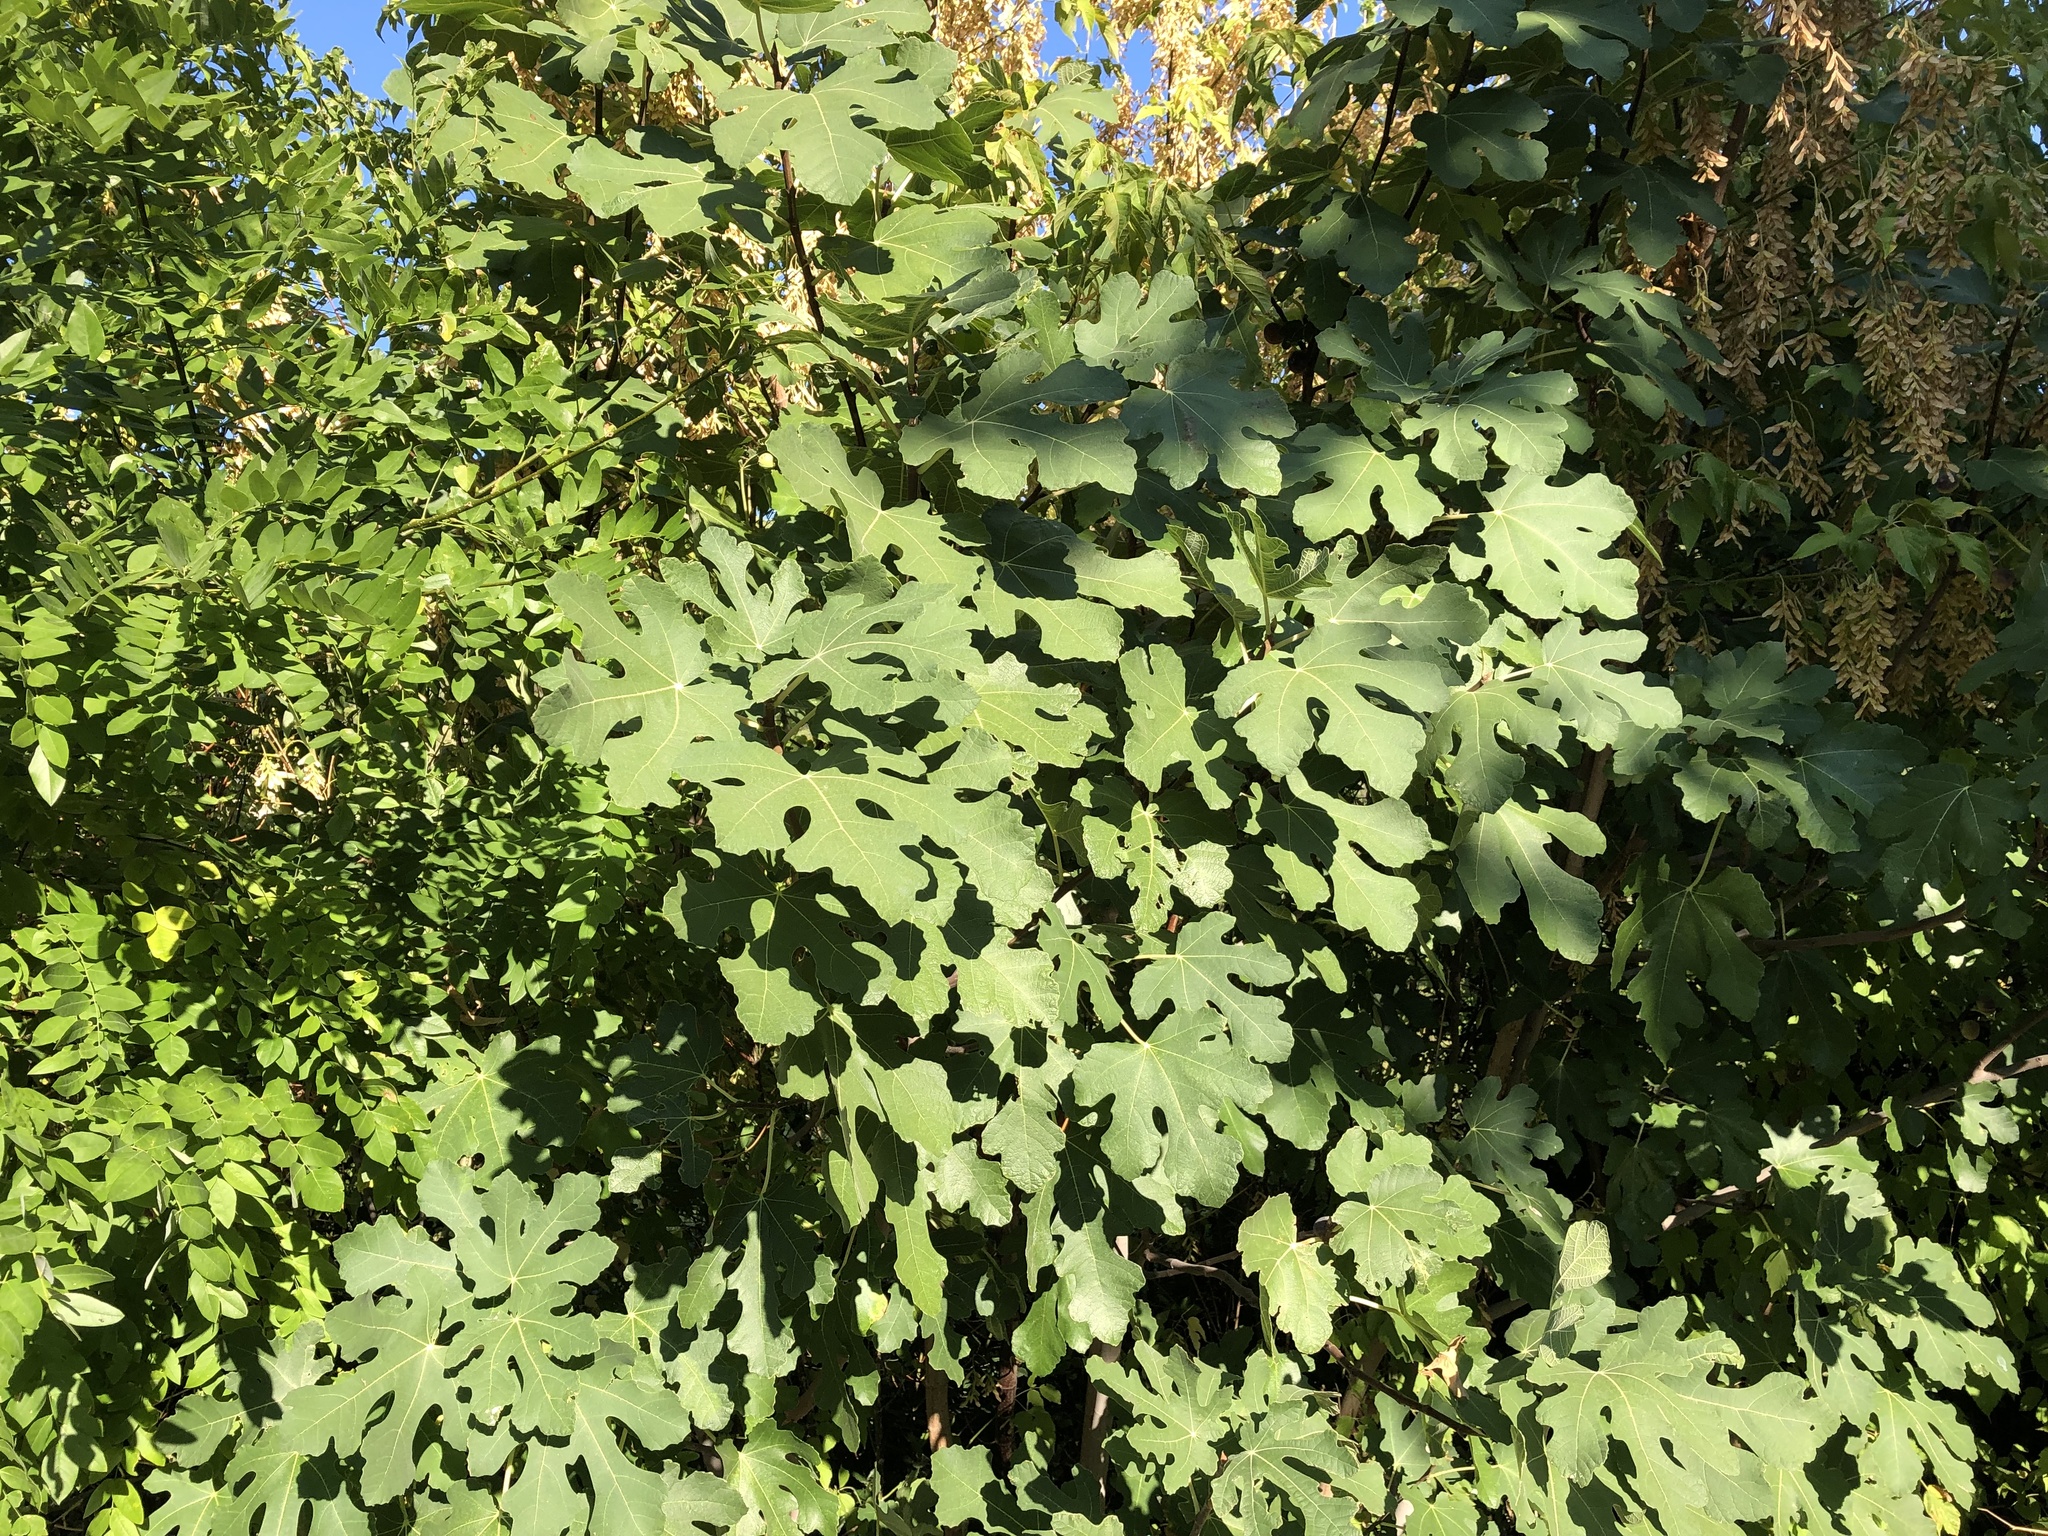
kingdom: Plantae
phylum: Tracheophyta
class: Magnoliopsida
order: Rosales
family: Moraceae
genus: Ficus
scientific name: Ficus carica
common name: Fig
